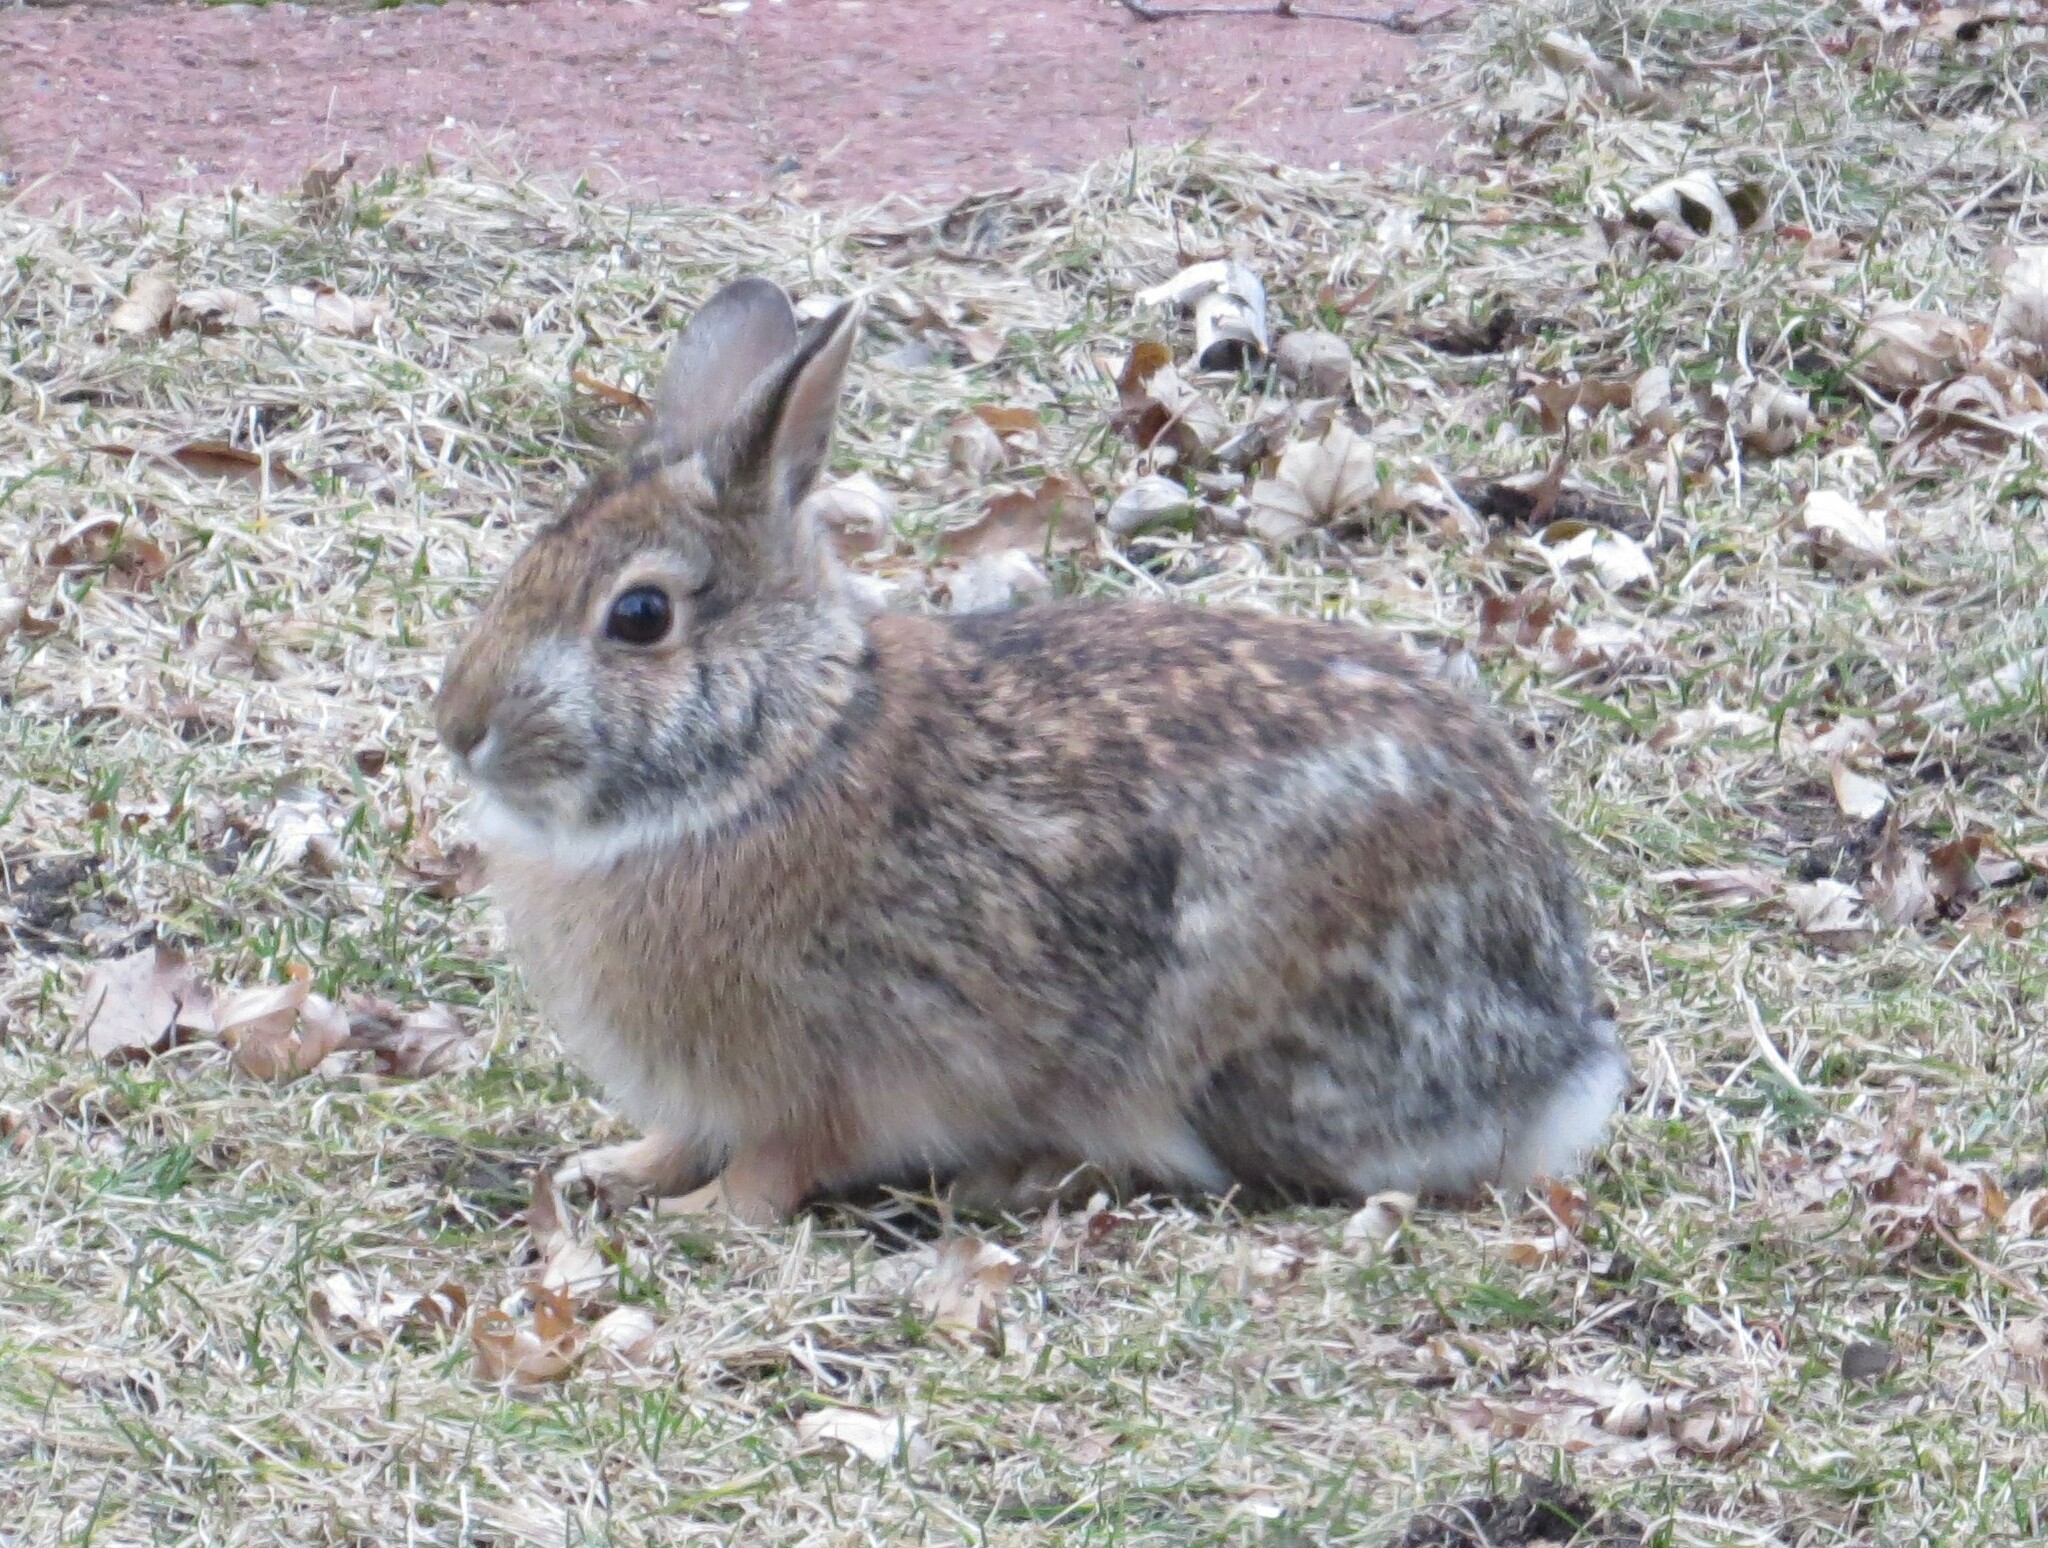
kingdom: Animalia
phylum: Chordata
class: Mammalia
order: Lagomorpha
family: Leporidae
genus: Sylvilagus
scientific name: Sylvilagus floridanus
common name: Eastern cottontail
